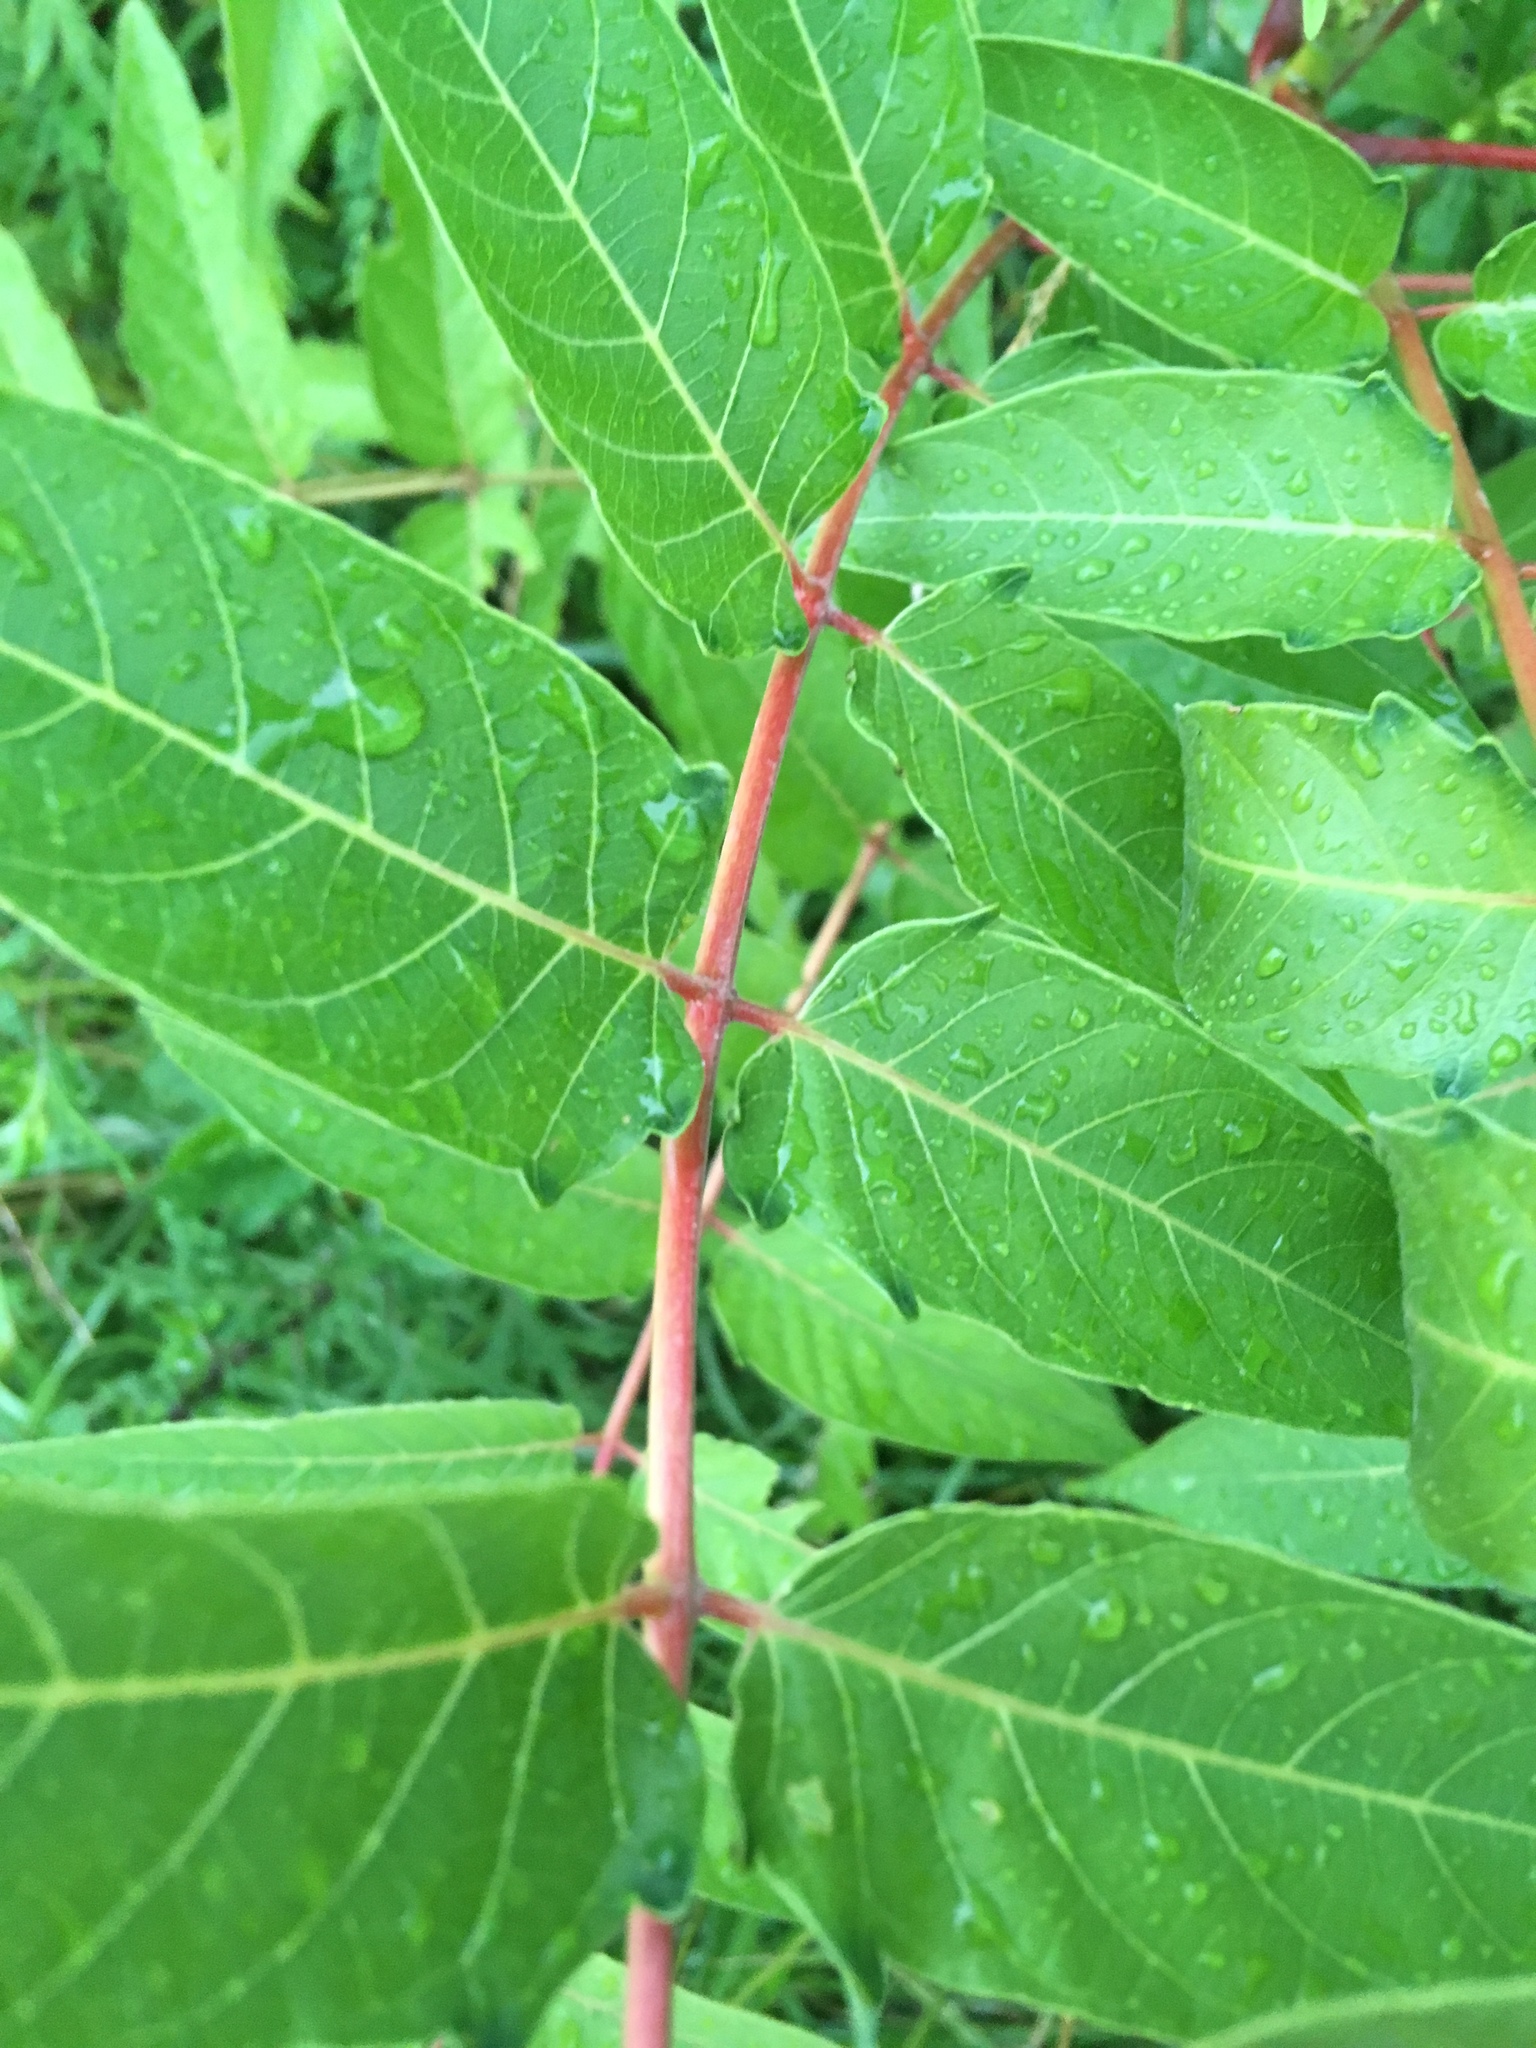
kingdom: Plantae
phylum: Tracheophyta
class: Magnoliopsida
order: Sapindales
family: Simaroubaceae
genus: Ailanthus
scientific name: Ailanthus altissima
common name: Tree-of-heaven
